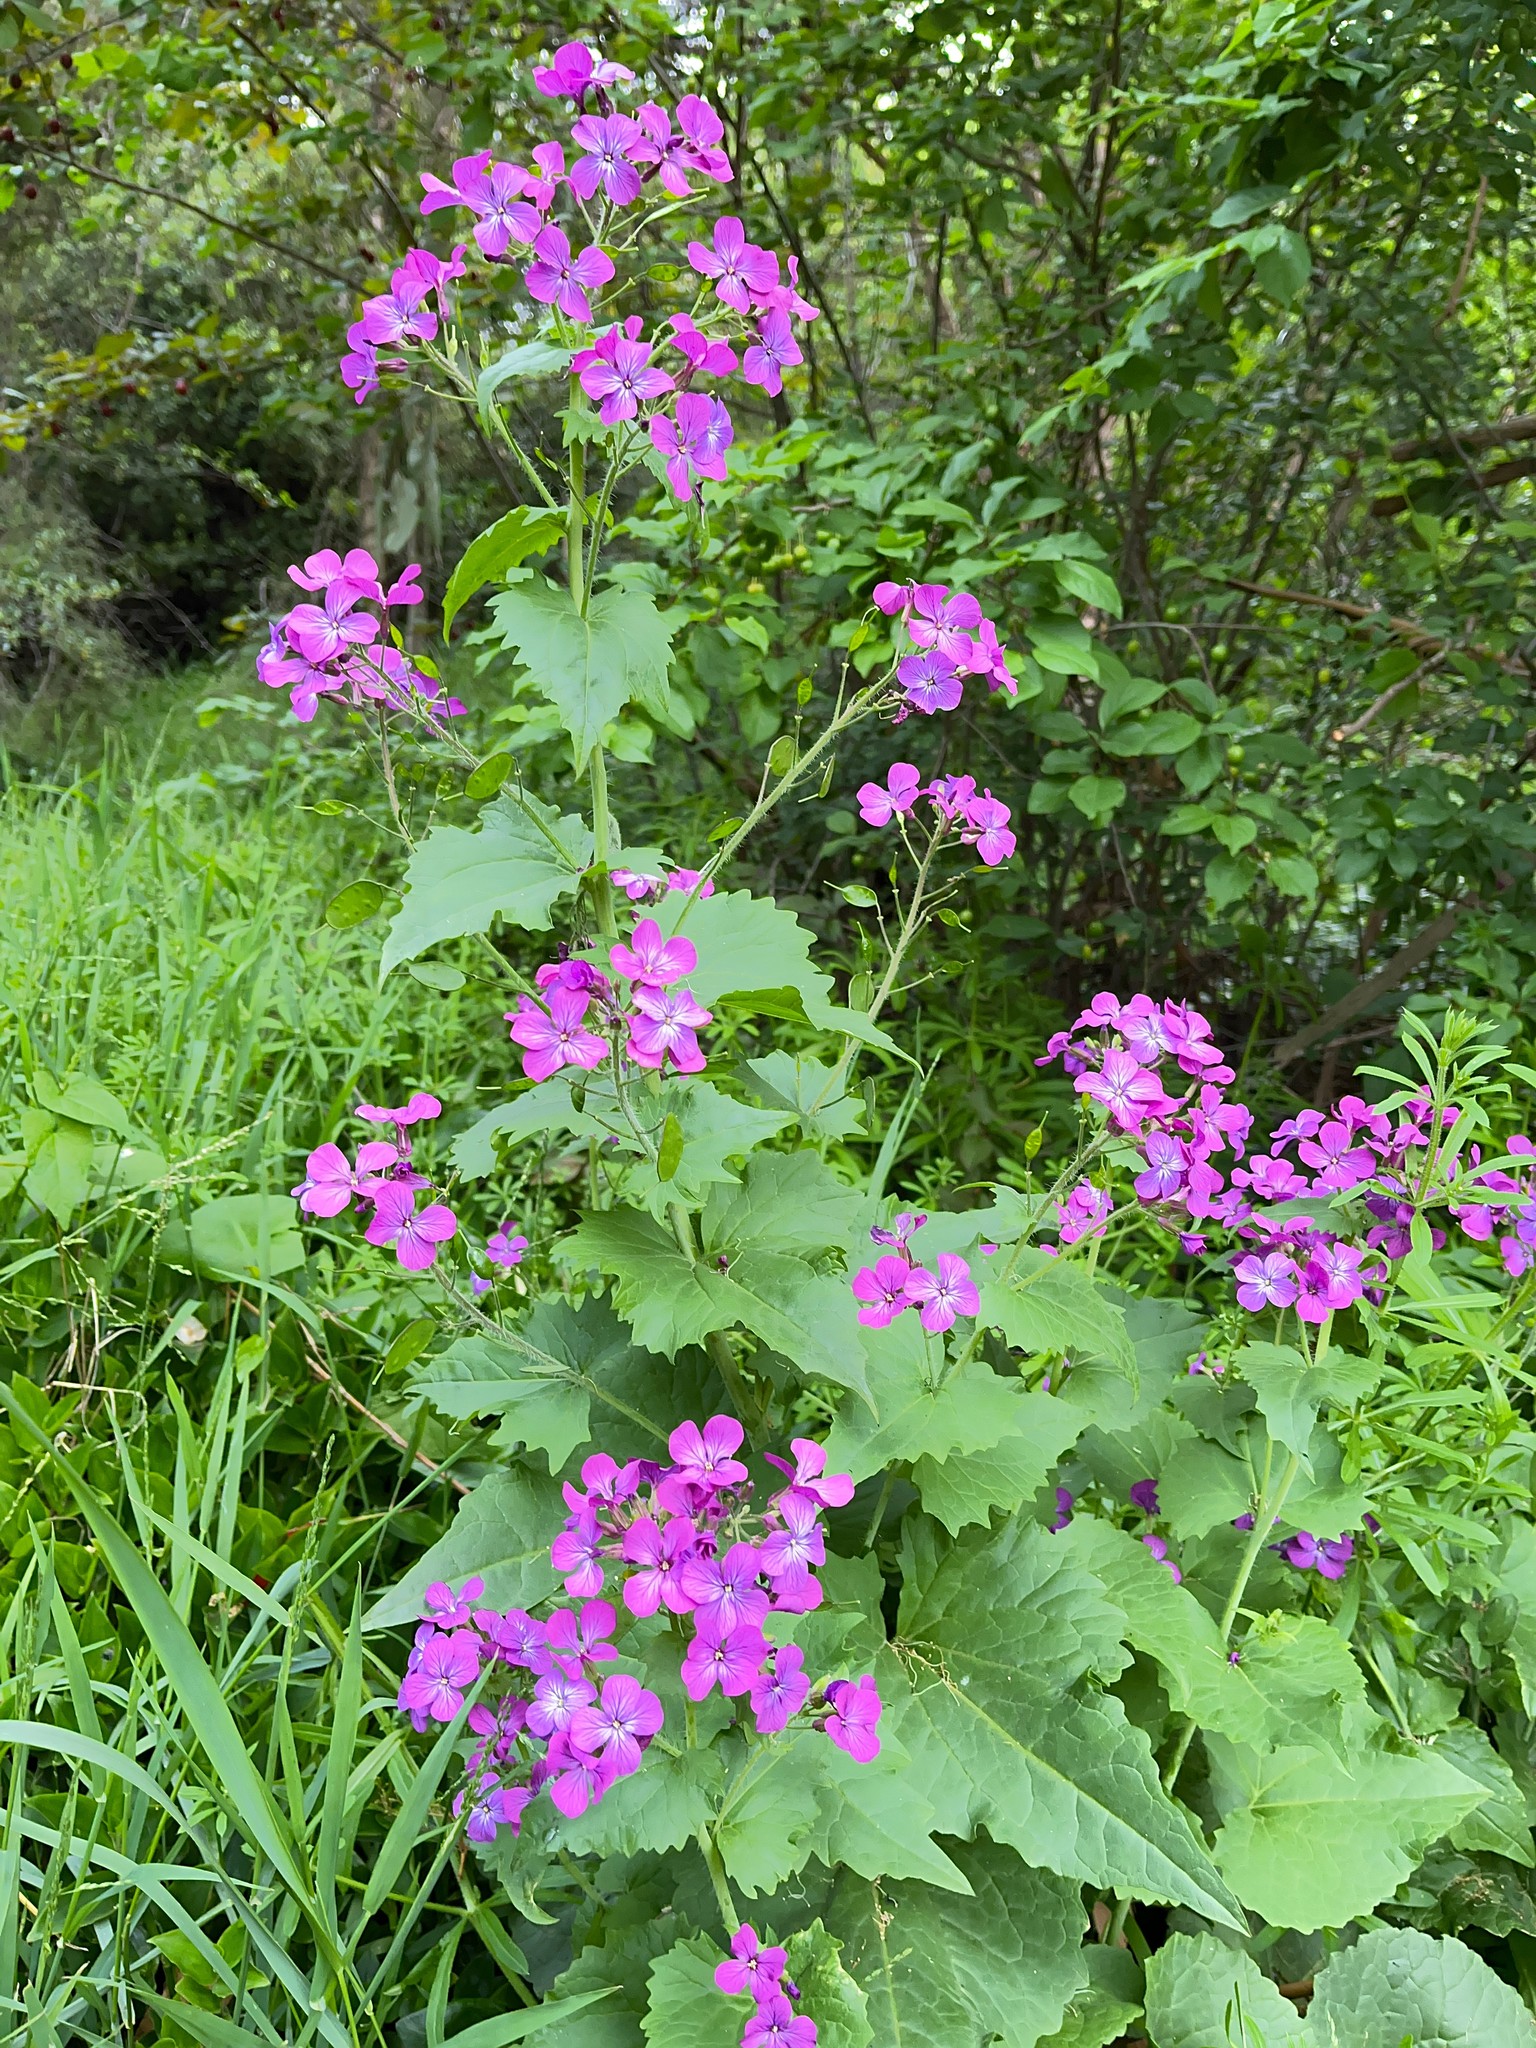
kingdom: Plantae
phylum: Tracheophyta
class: Magnoliopsida
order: Brassicales
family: Brassicaceae
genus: Lunaria
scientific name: Lunaria annua
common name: Honesty
